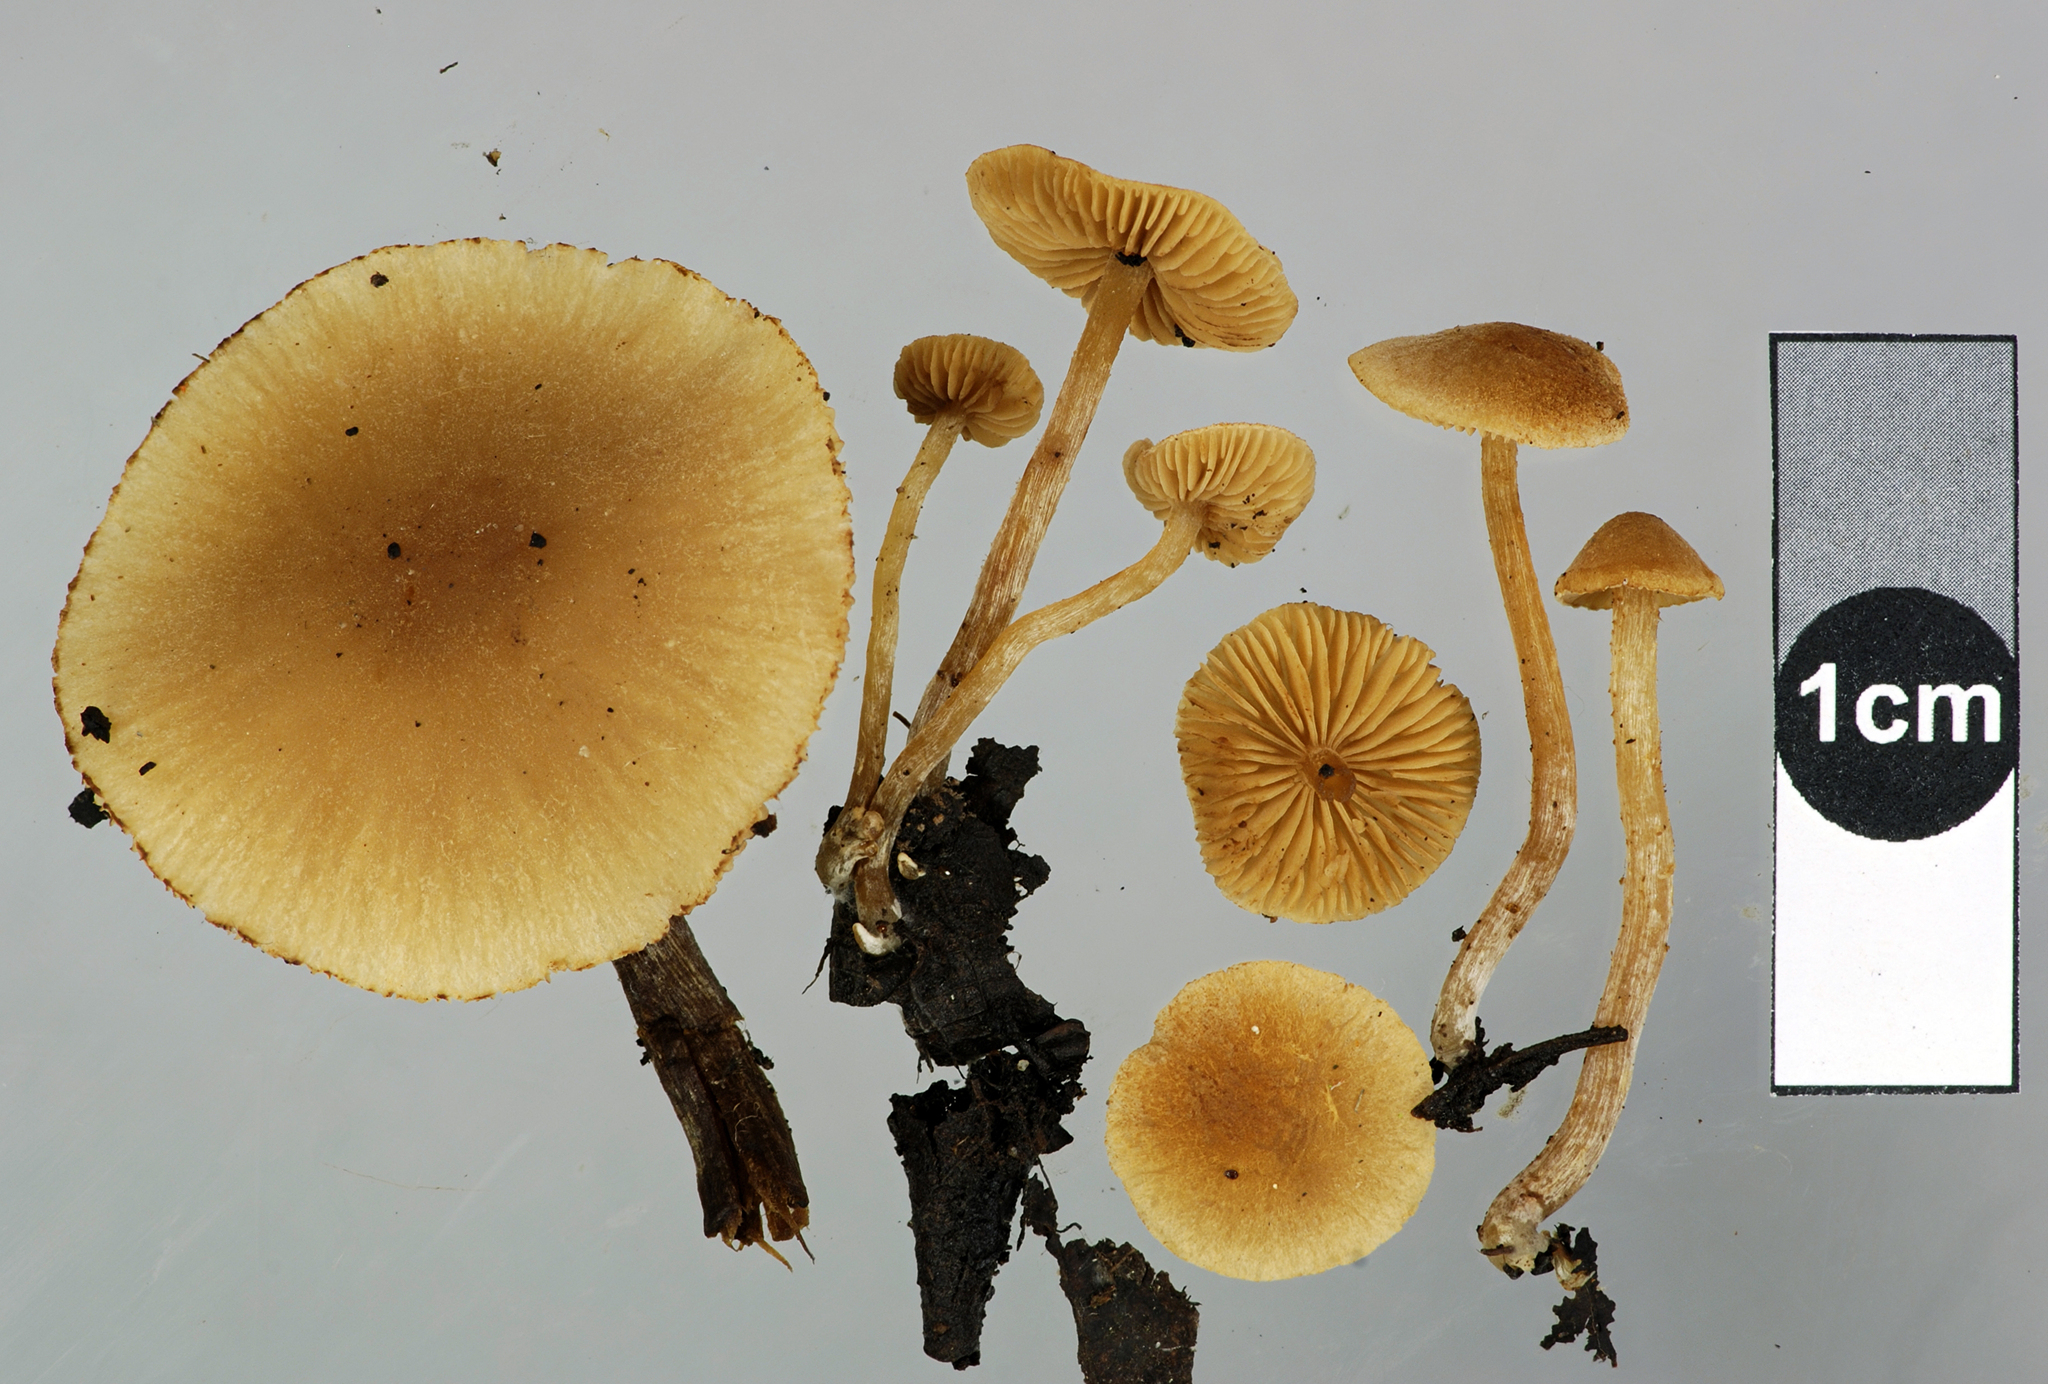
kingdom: Fungi
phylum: Basidiomycota
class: Agaricomycetes
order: Agaricales
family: Hymenogastraceae
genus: Naucoria
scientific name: Naucoria escharioides
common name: Ochre aldercap
